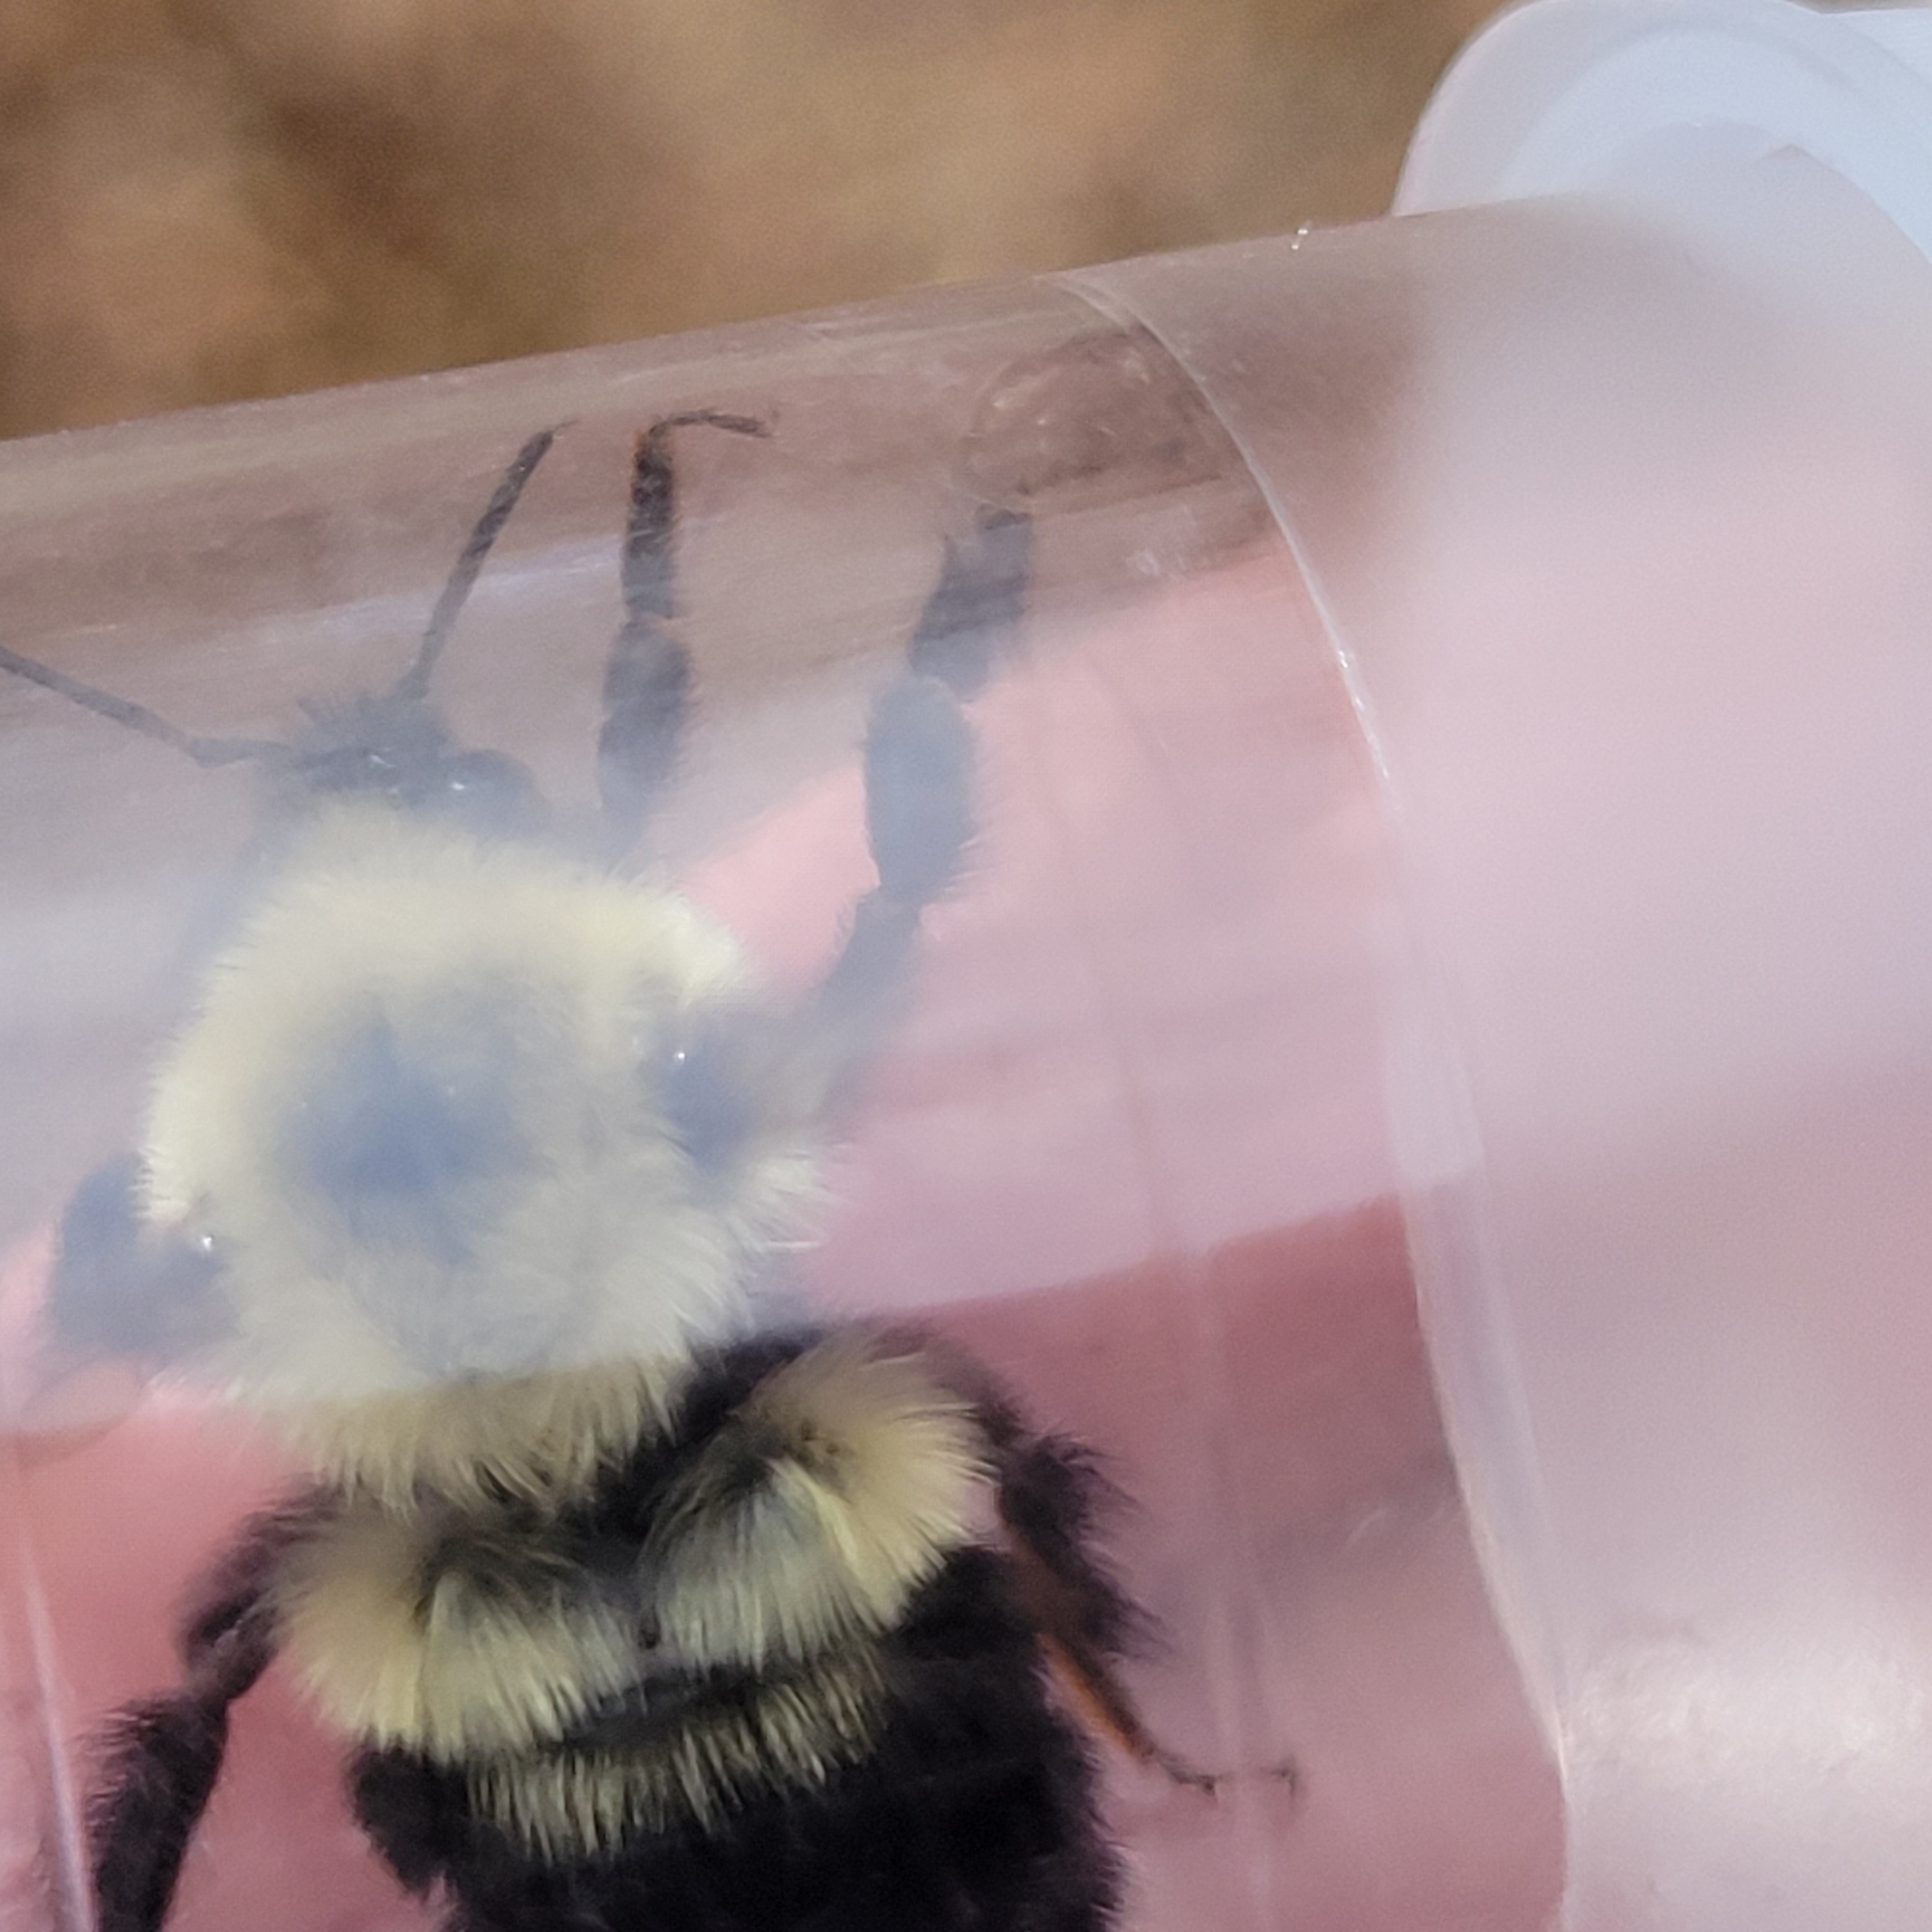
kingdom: Animalia
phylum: Arthropoda
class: Insecta
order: Hymenoptera
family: Apidae
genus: Bombus
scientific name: Bombus bimaculatus
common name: Two-spotted bumble bee
